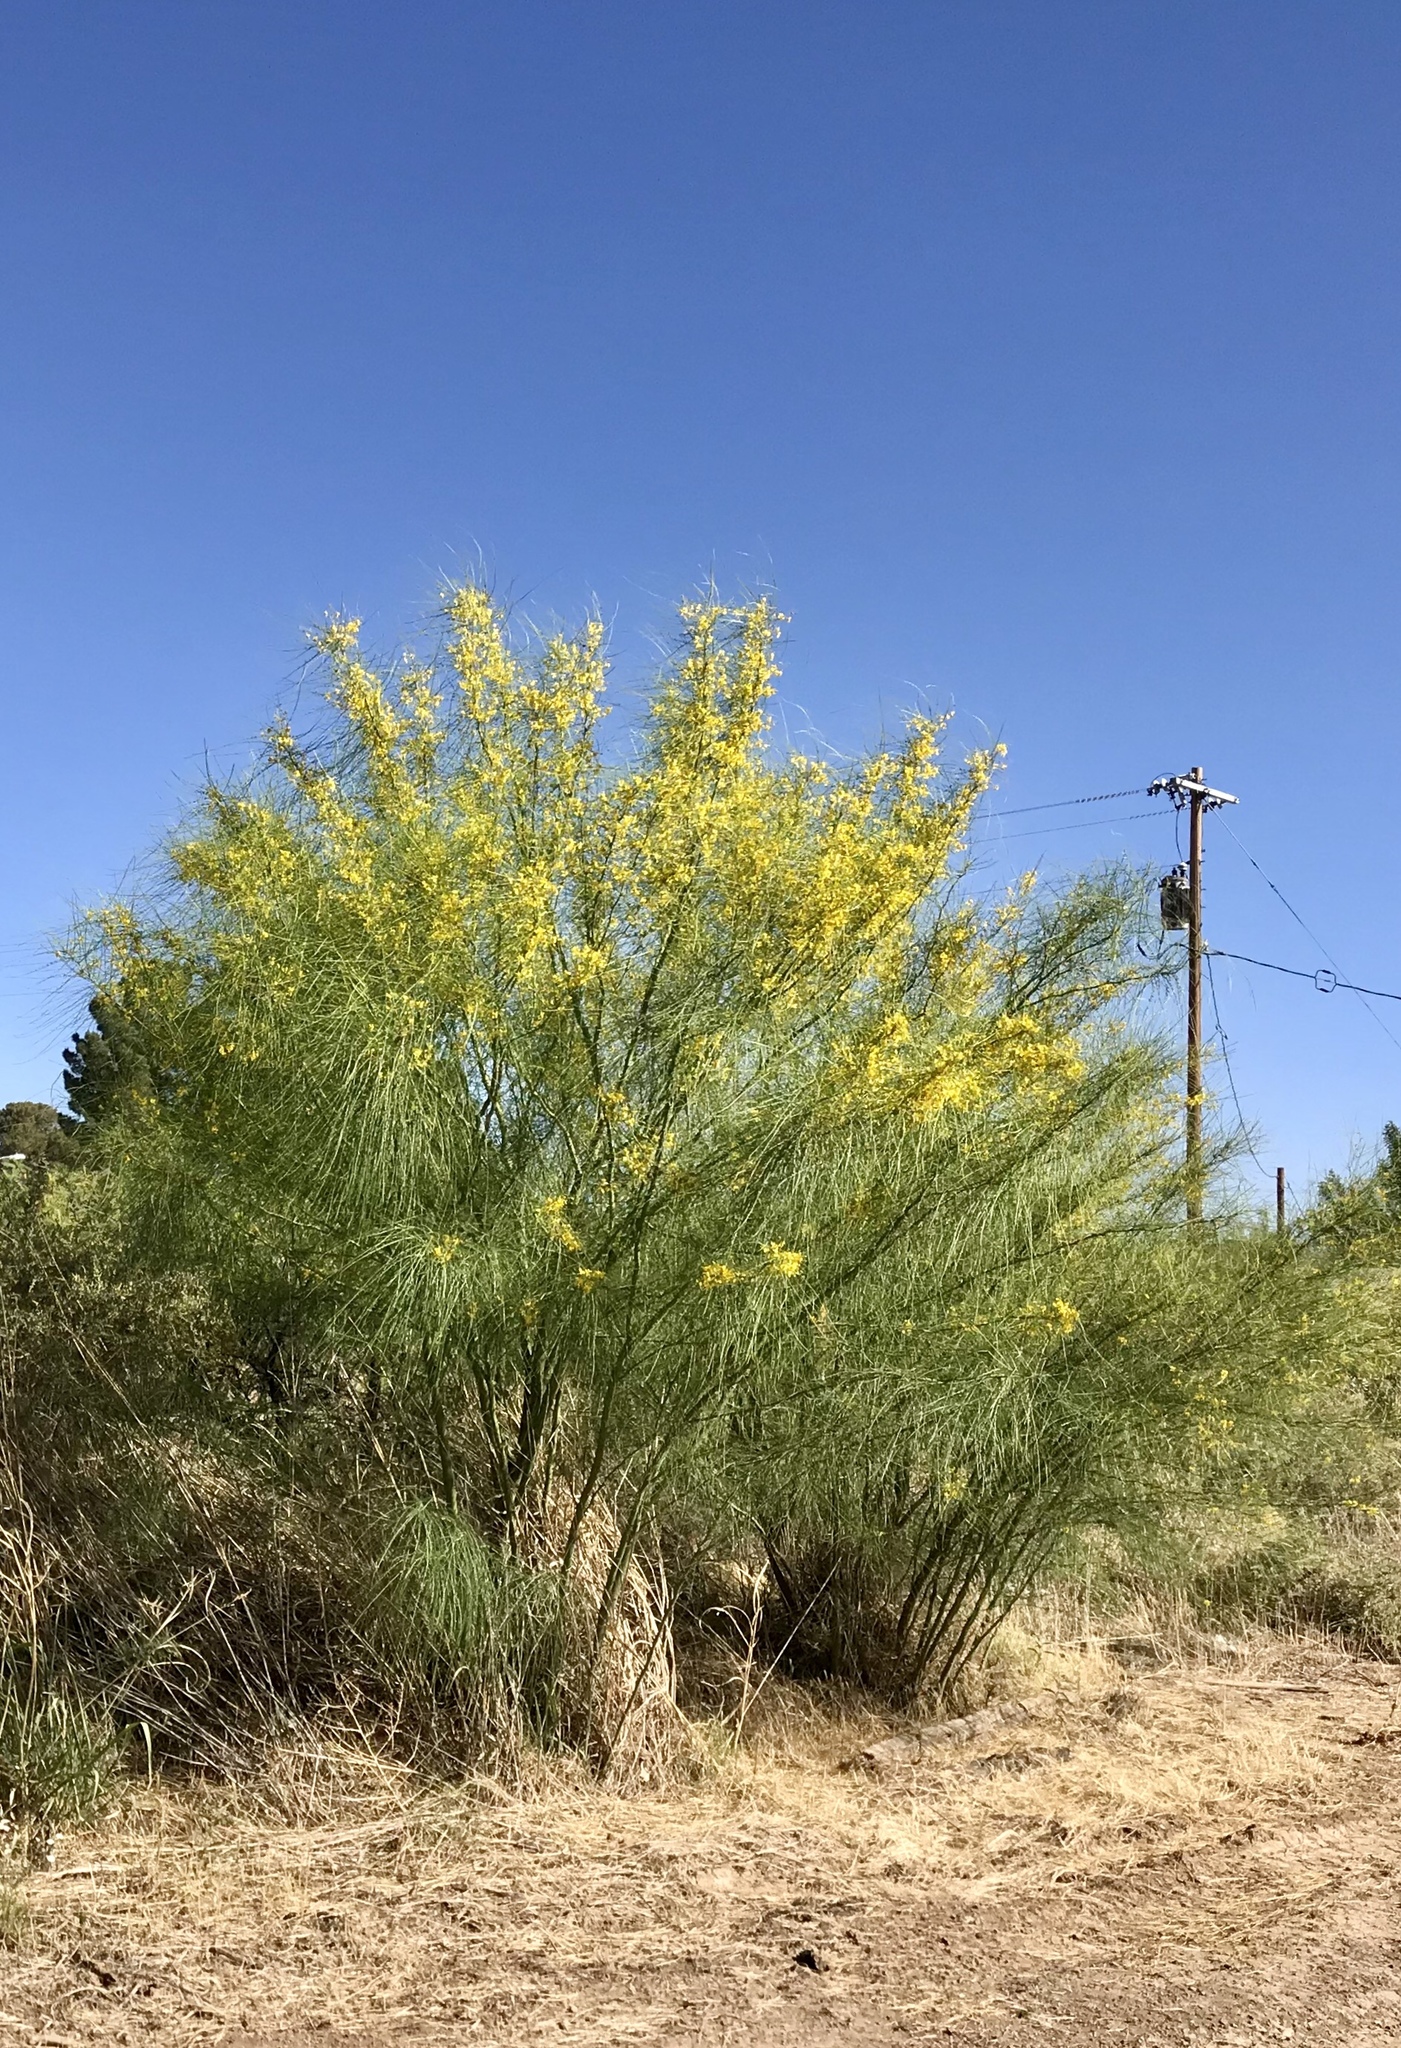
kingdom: Plantae
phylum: Tracheophyta
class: Magnoliopsida
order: Fabales
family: Fabaceae
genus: Parkinsonia
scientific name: Parkinsonia aculeata
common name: Jerusalem thorn
